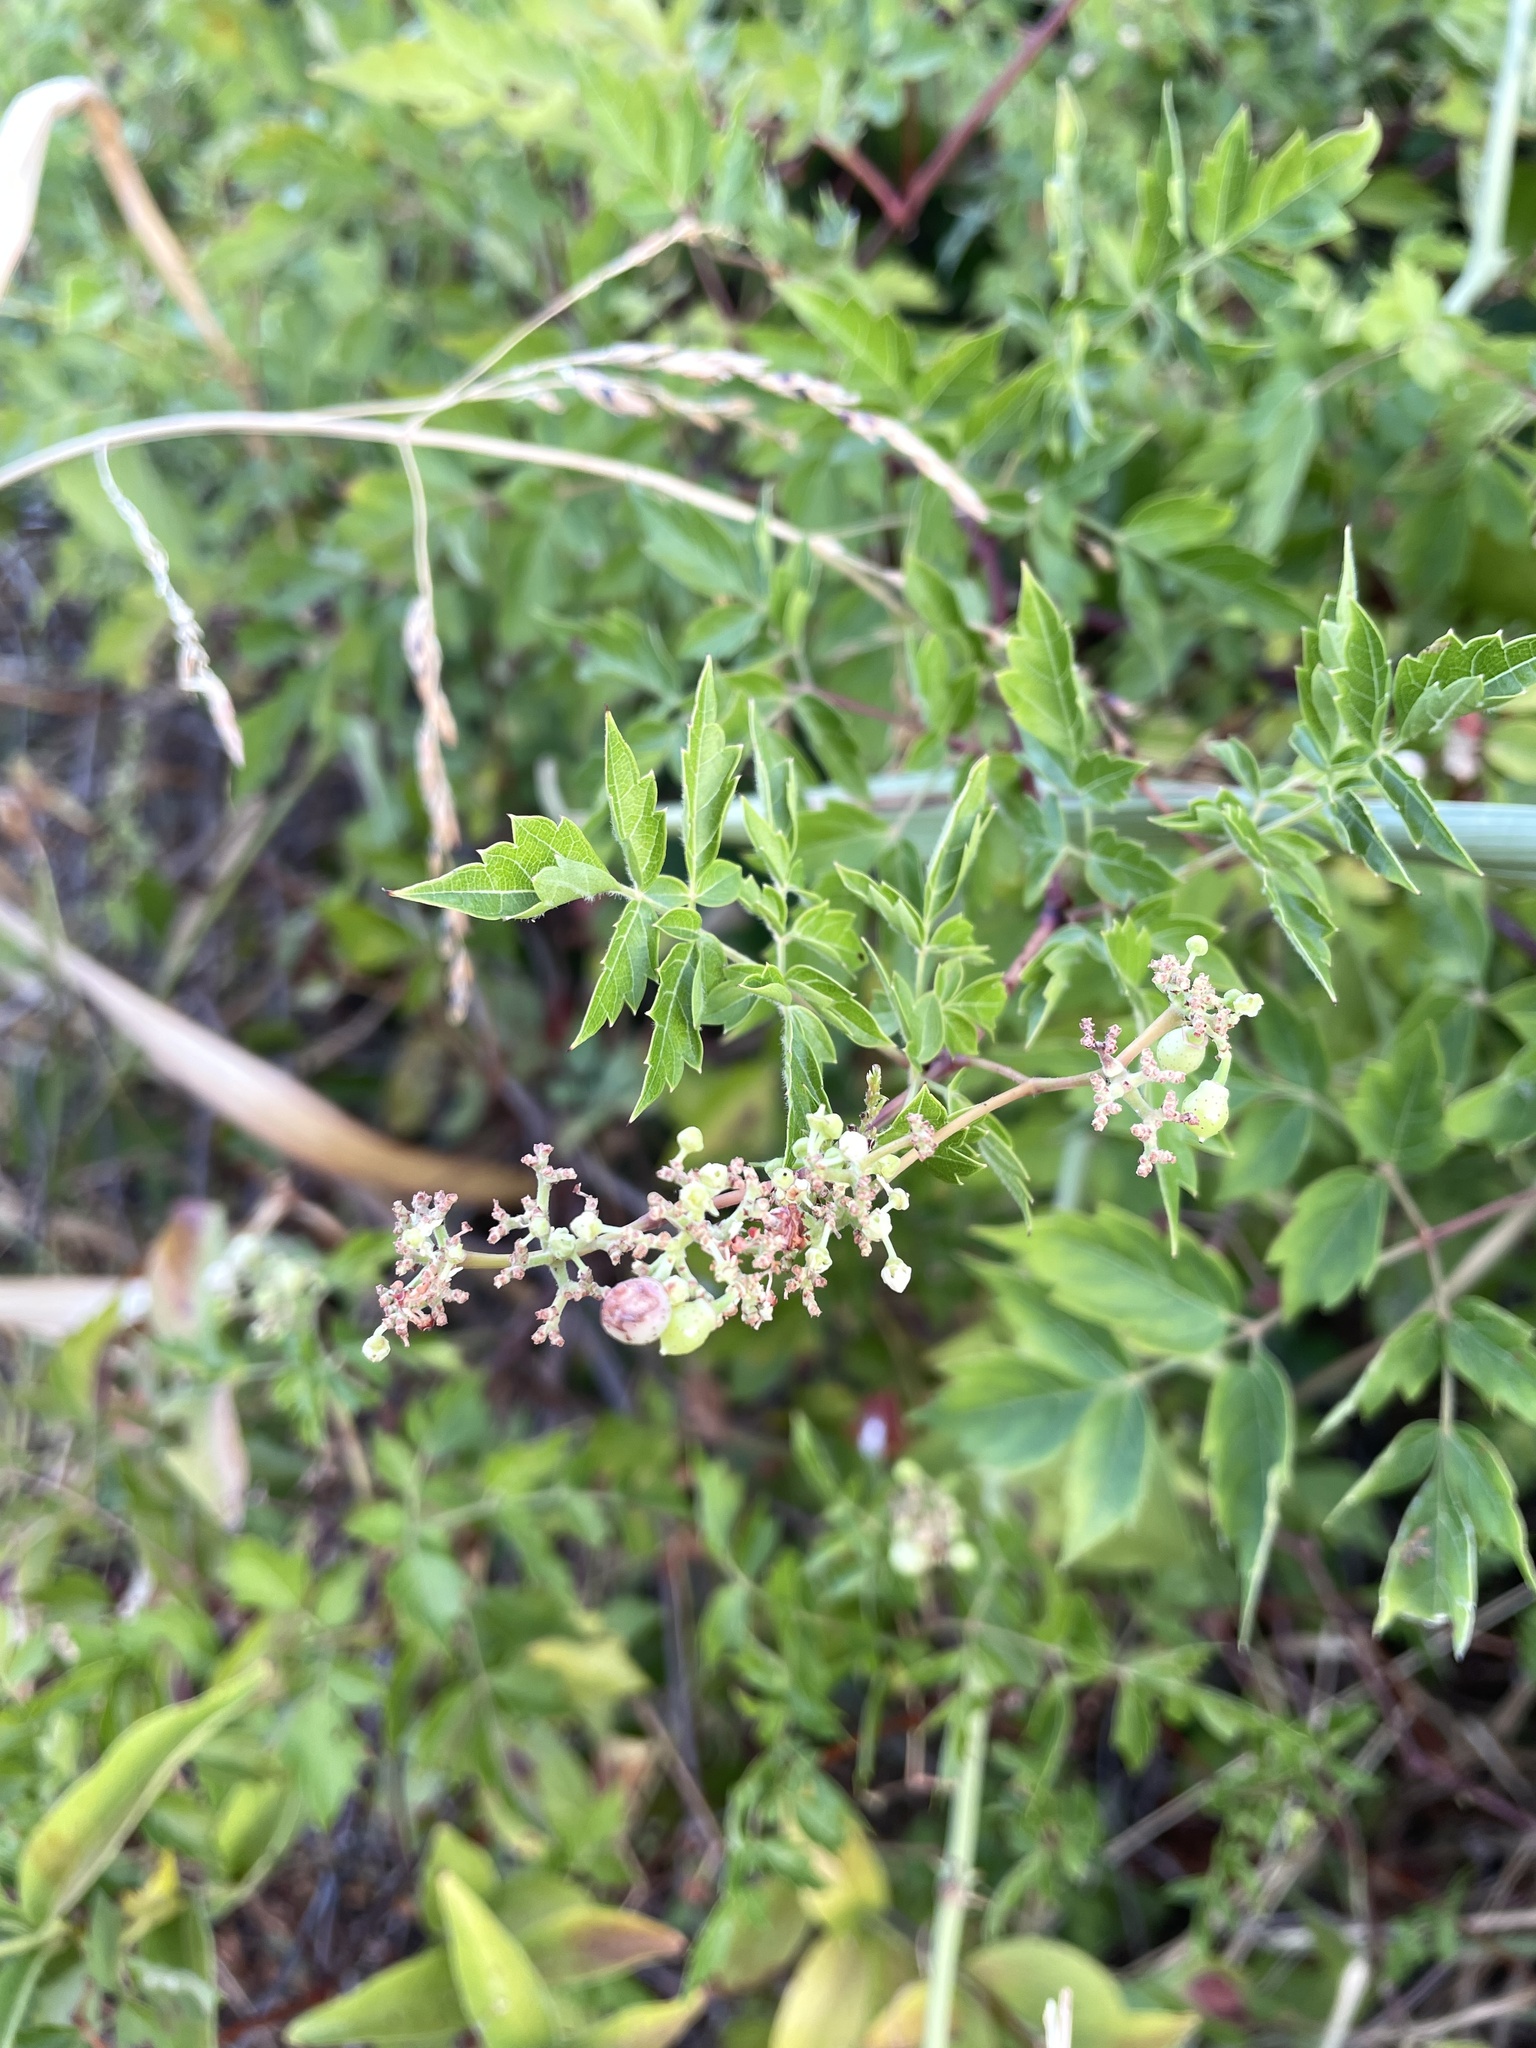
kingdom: Plantae
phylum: Tracheophyta
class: Magnoliopsida
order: Vitales
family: Vitaceae
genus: Nekemias
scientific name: Nekemias arborea
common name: Peppervine
